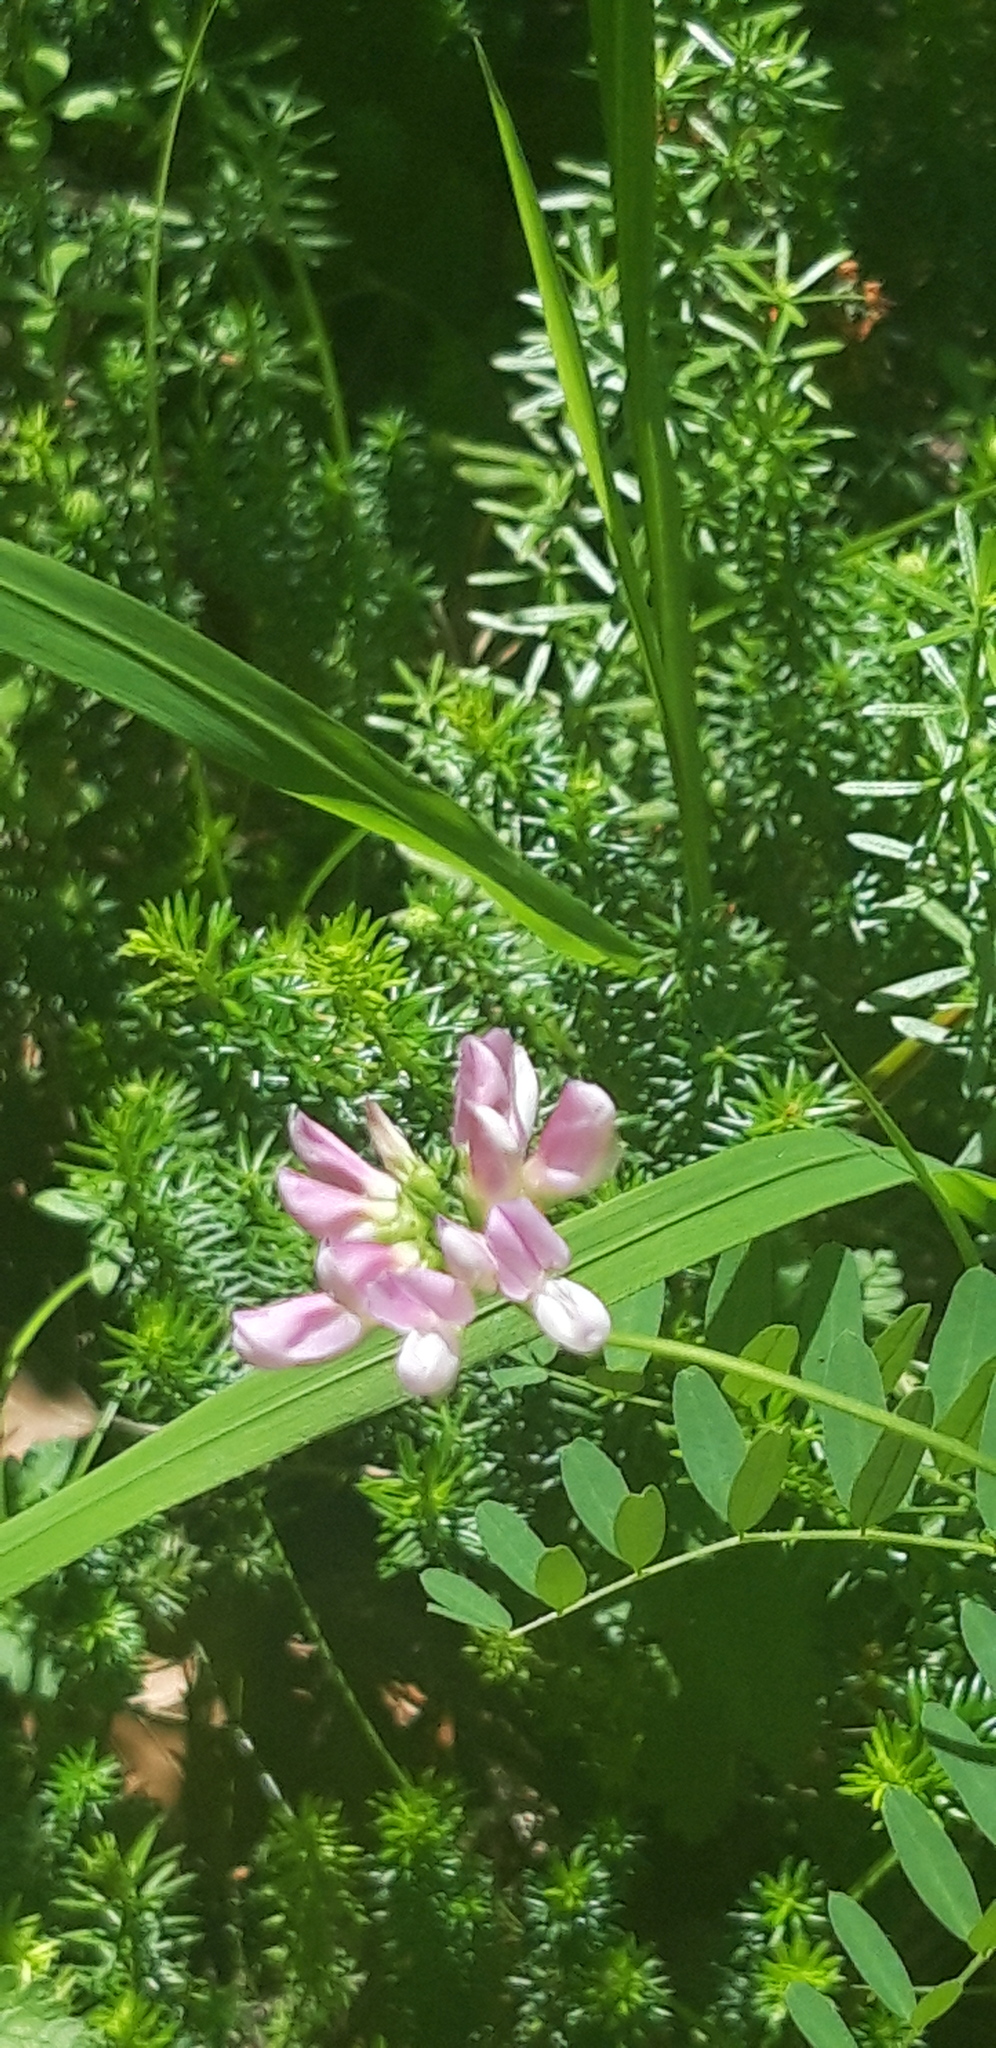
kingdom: Plantae
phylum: Tracheophyta
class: Magnoliopsida
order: Fabales
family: Fabaceae
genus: Coronilla
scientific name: Coronilla varia
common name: Crownvetch
